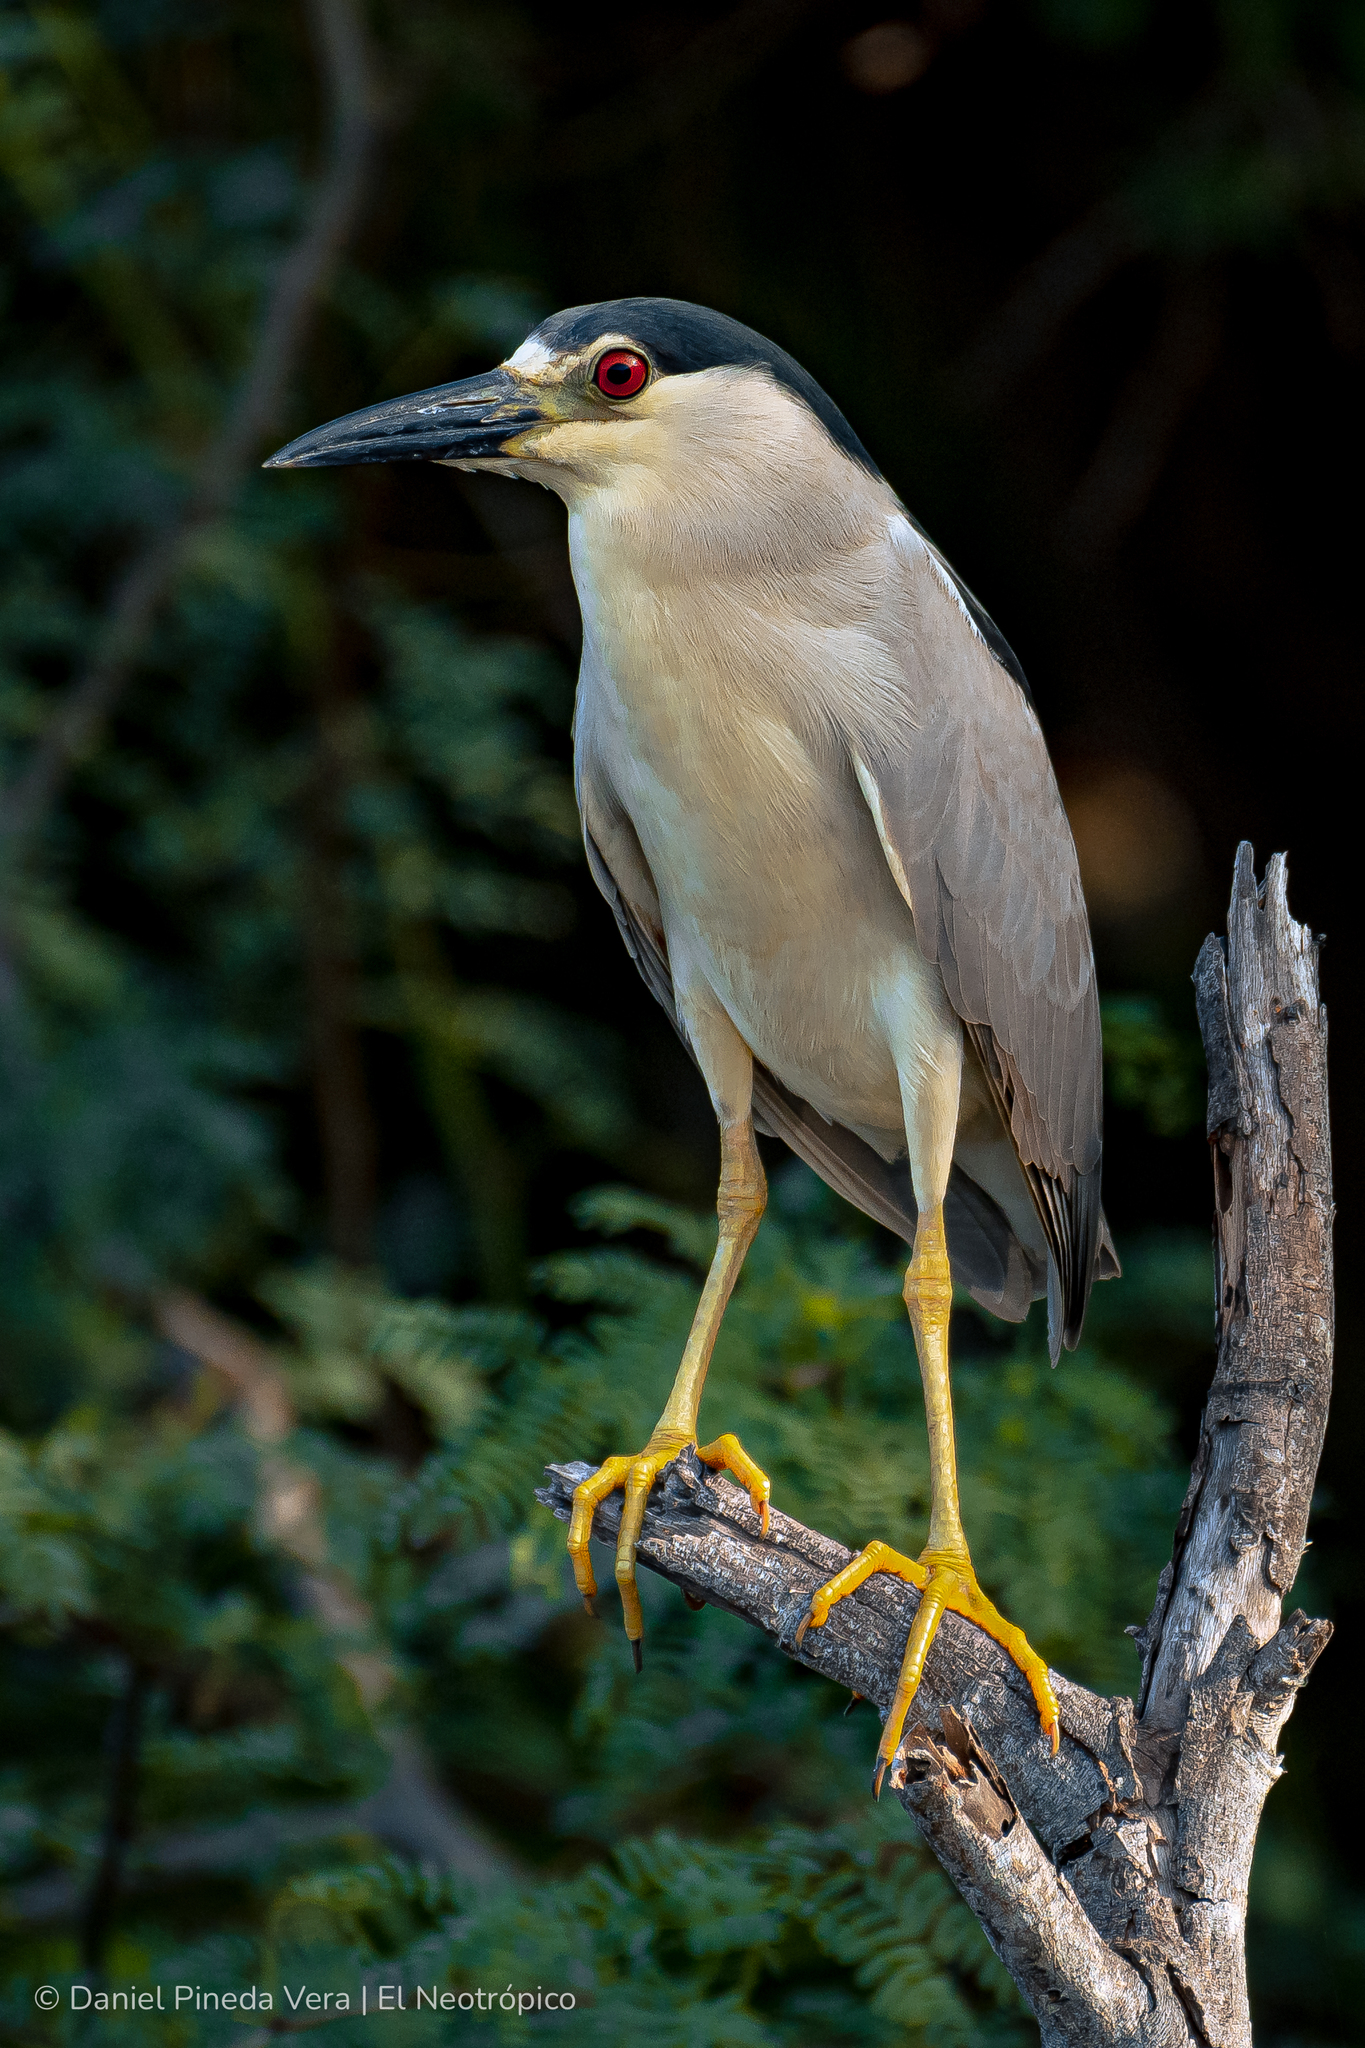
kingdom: Animalia
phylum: Chordata
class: Aves
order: Pelecaniformes
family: Ardeidae
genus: Nycticorax
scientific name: Nycticorax nycticorax
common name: Black-crowned night heron
